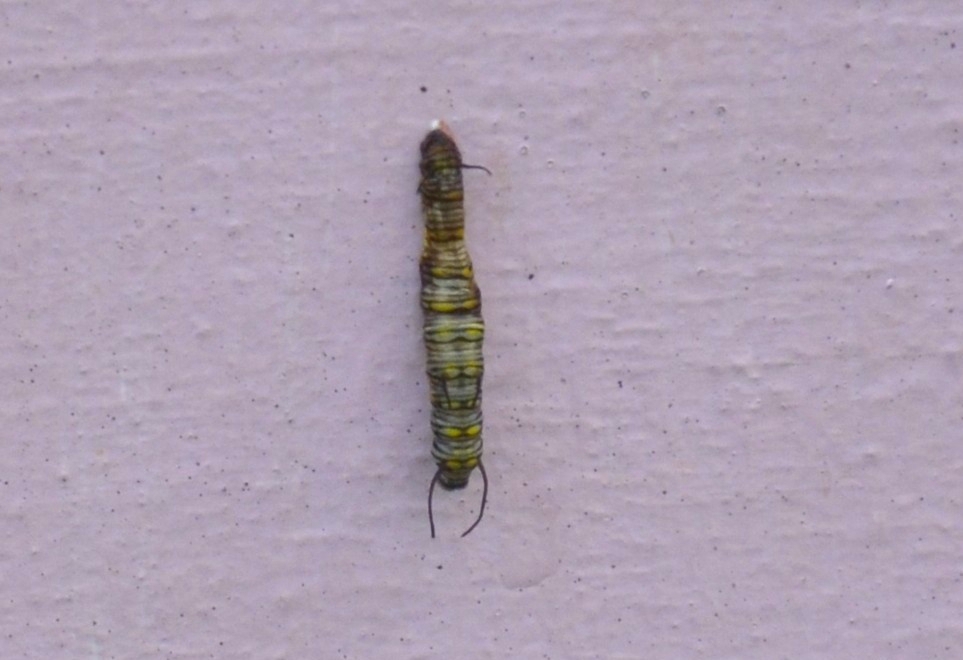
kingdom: Animalia
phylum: Arthropoda
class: Insecta
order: Lepidoptera
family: Nymphalidae
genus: Danaus
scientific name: Danaus chrysippus
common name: Plain tiger
